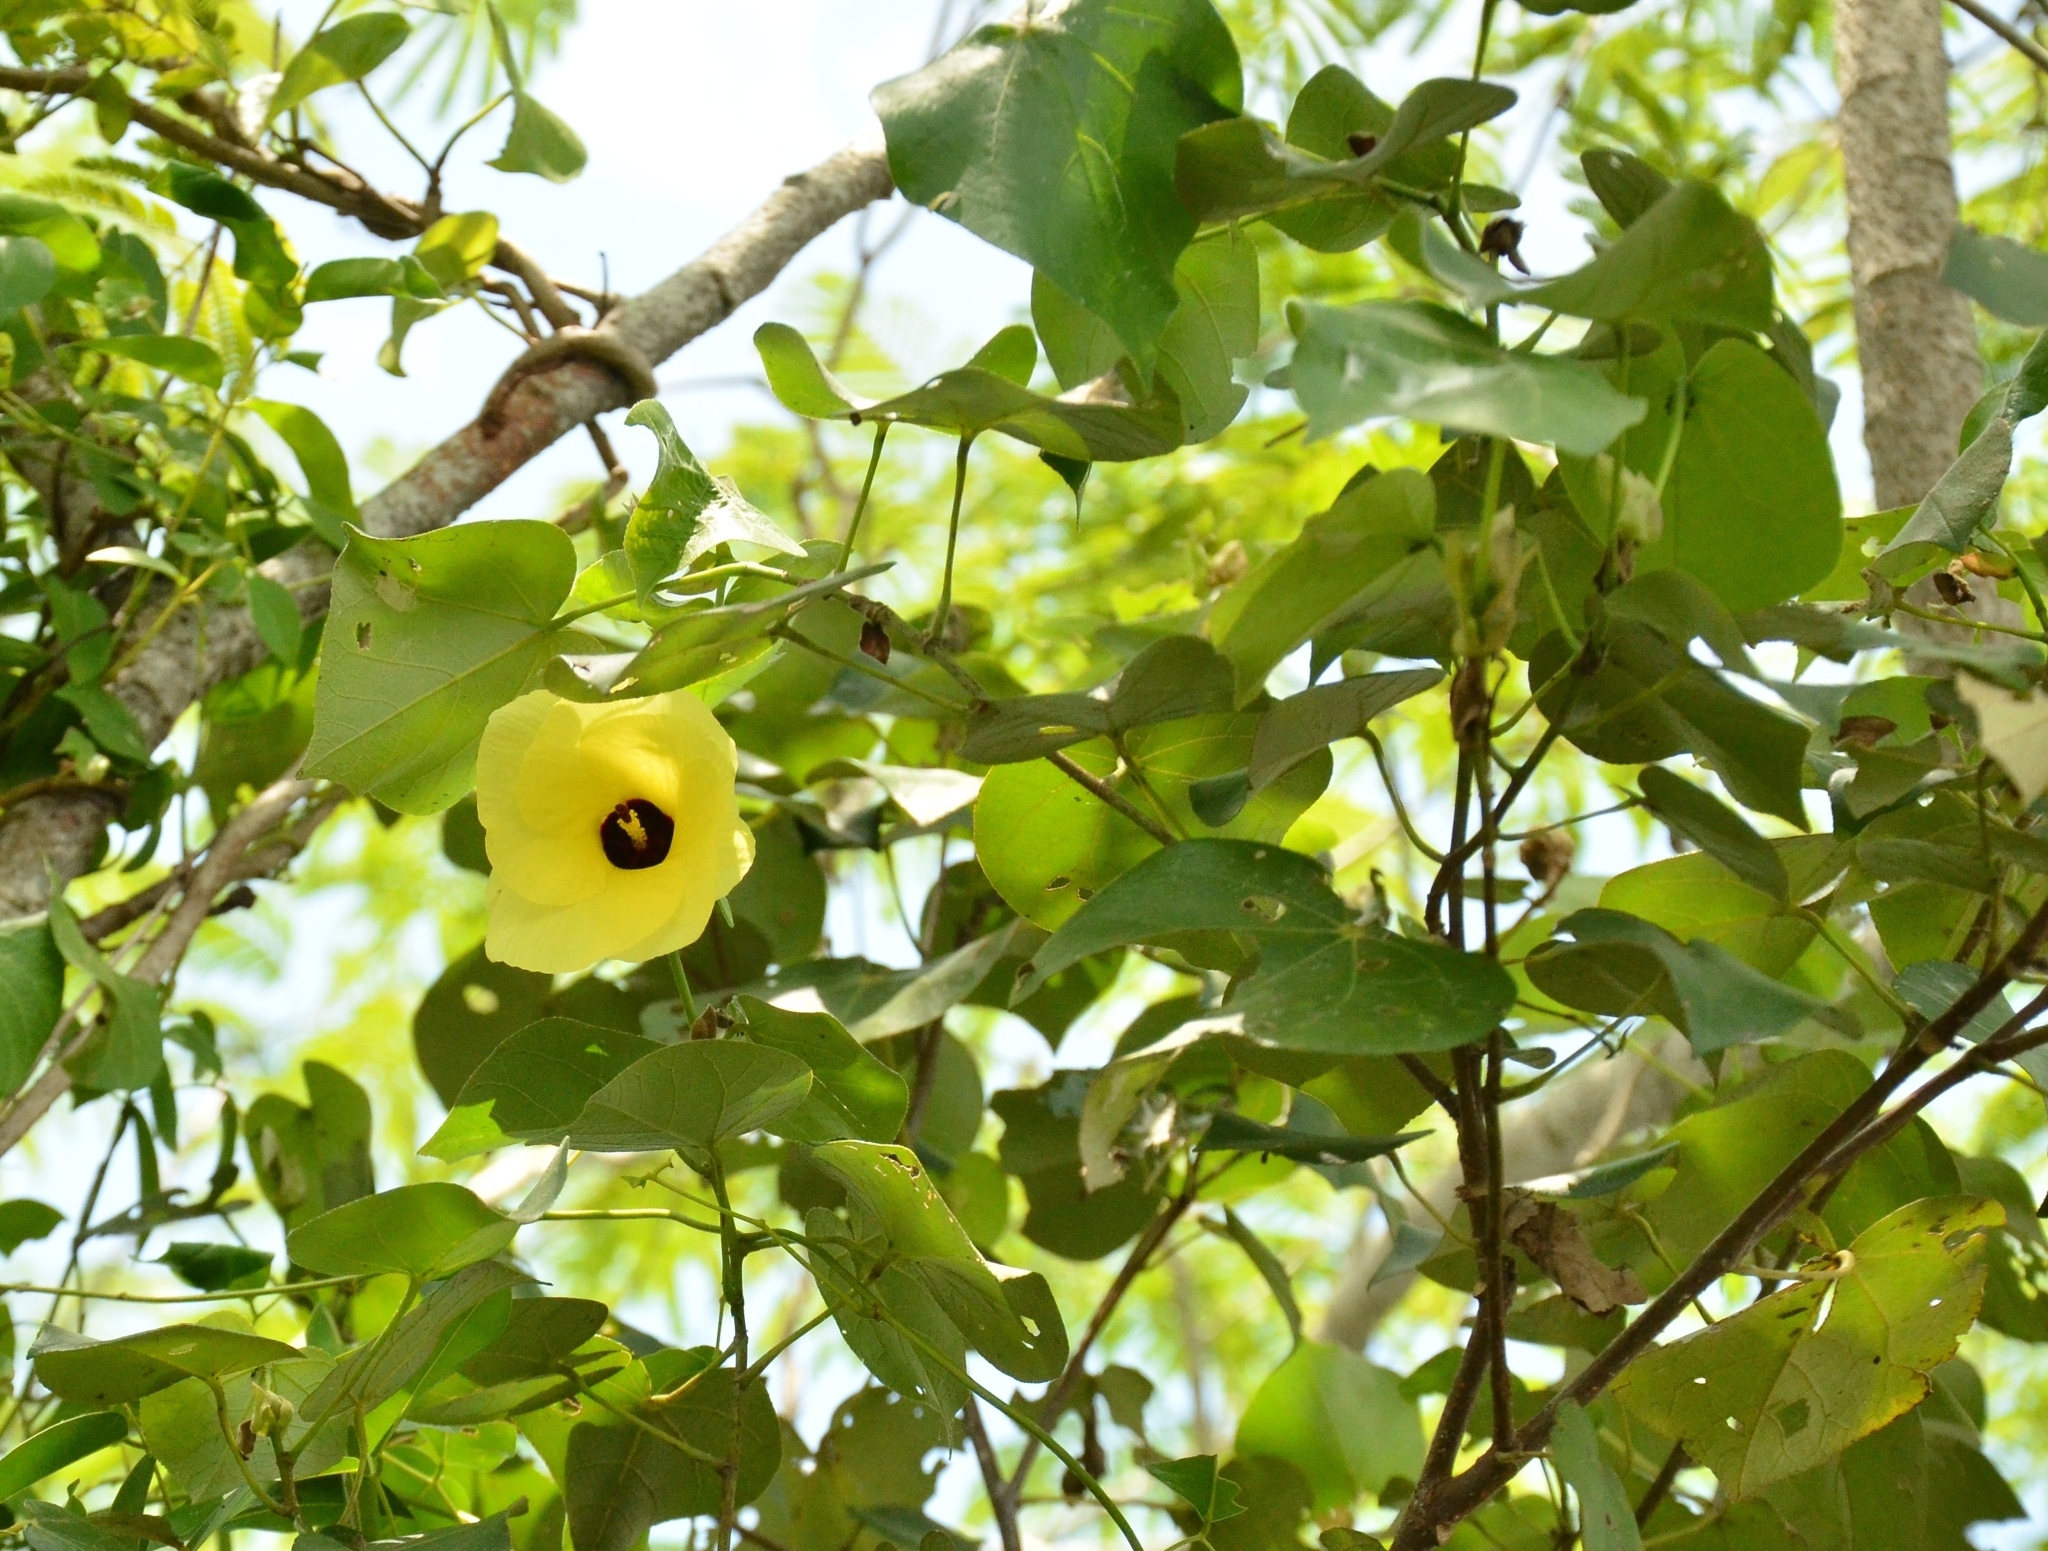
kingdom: Plantae
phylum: Tracheophyta
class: Magnoliopsida
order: Malvales
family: Malvaceae
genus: Talipariti
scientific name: Talipariti tiliaceum
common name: Sea hibiscus
